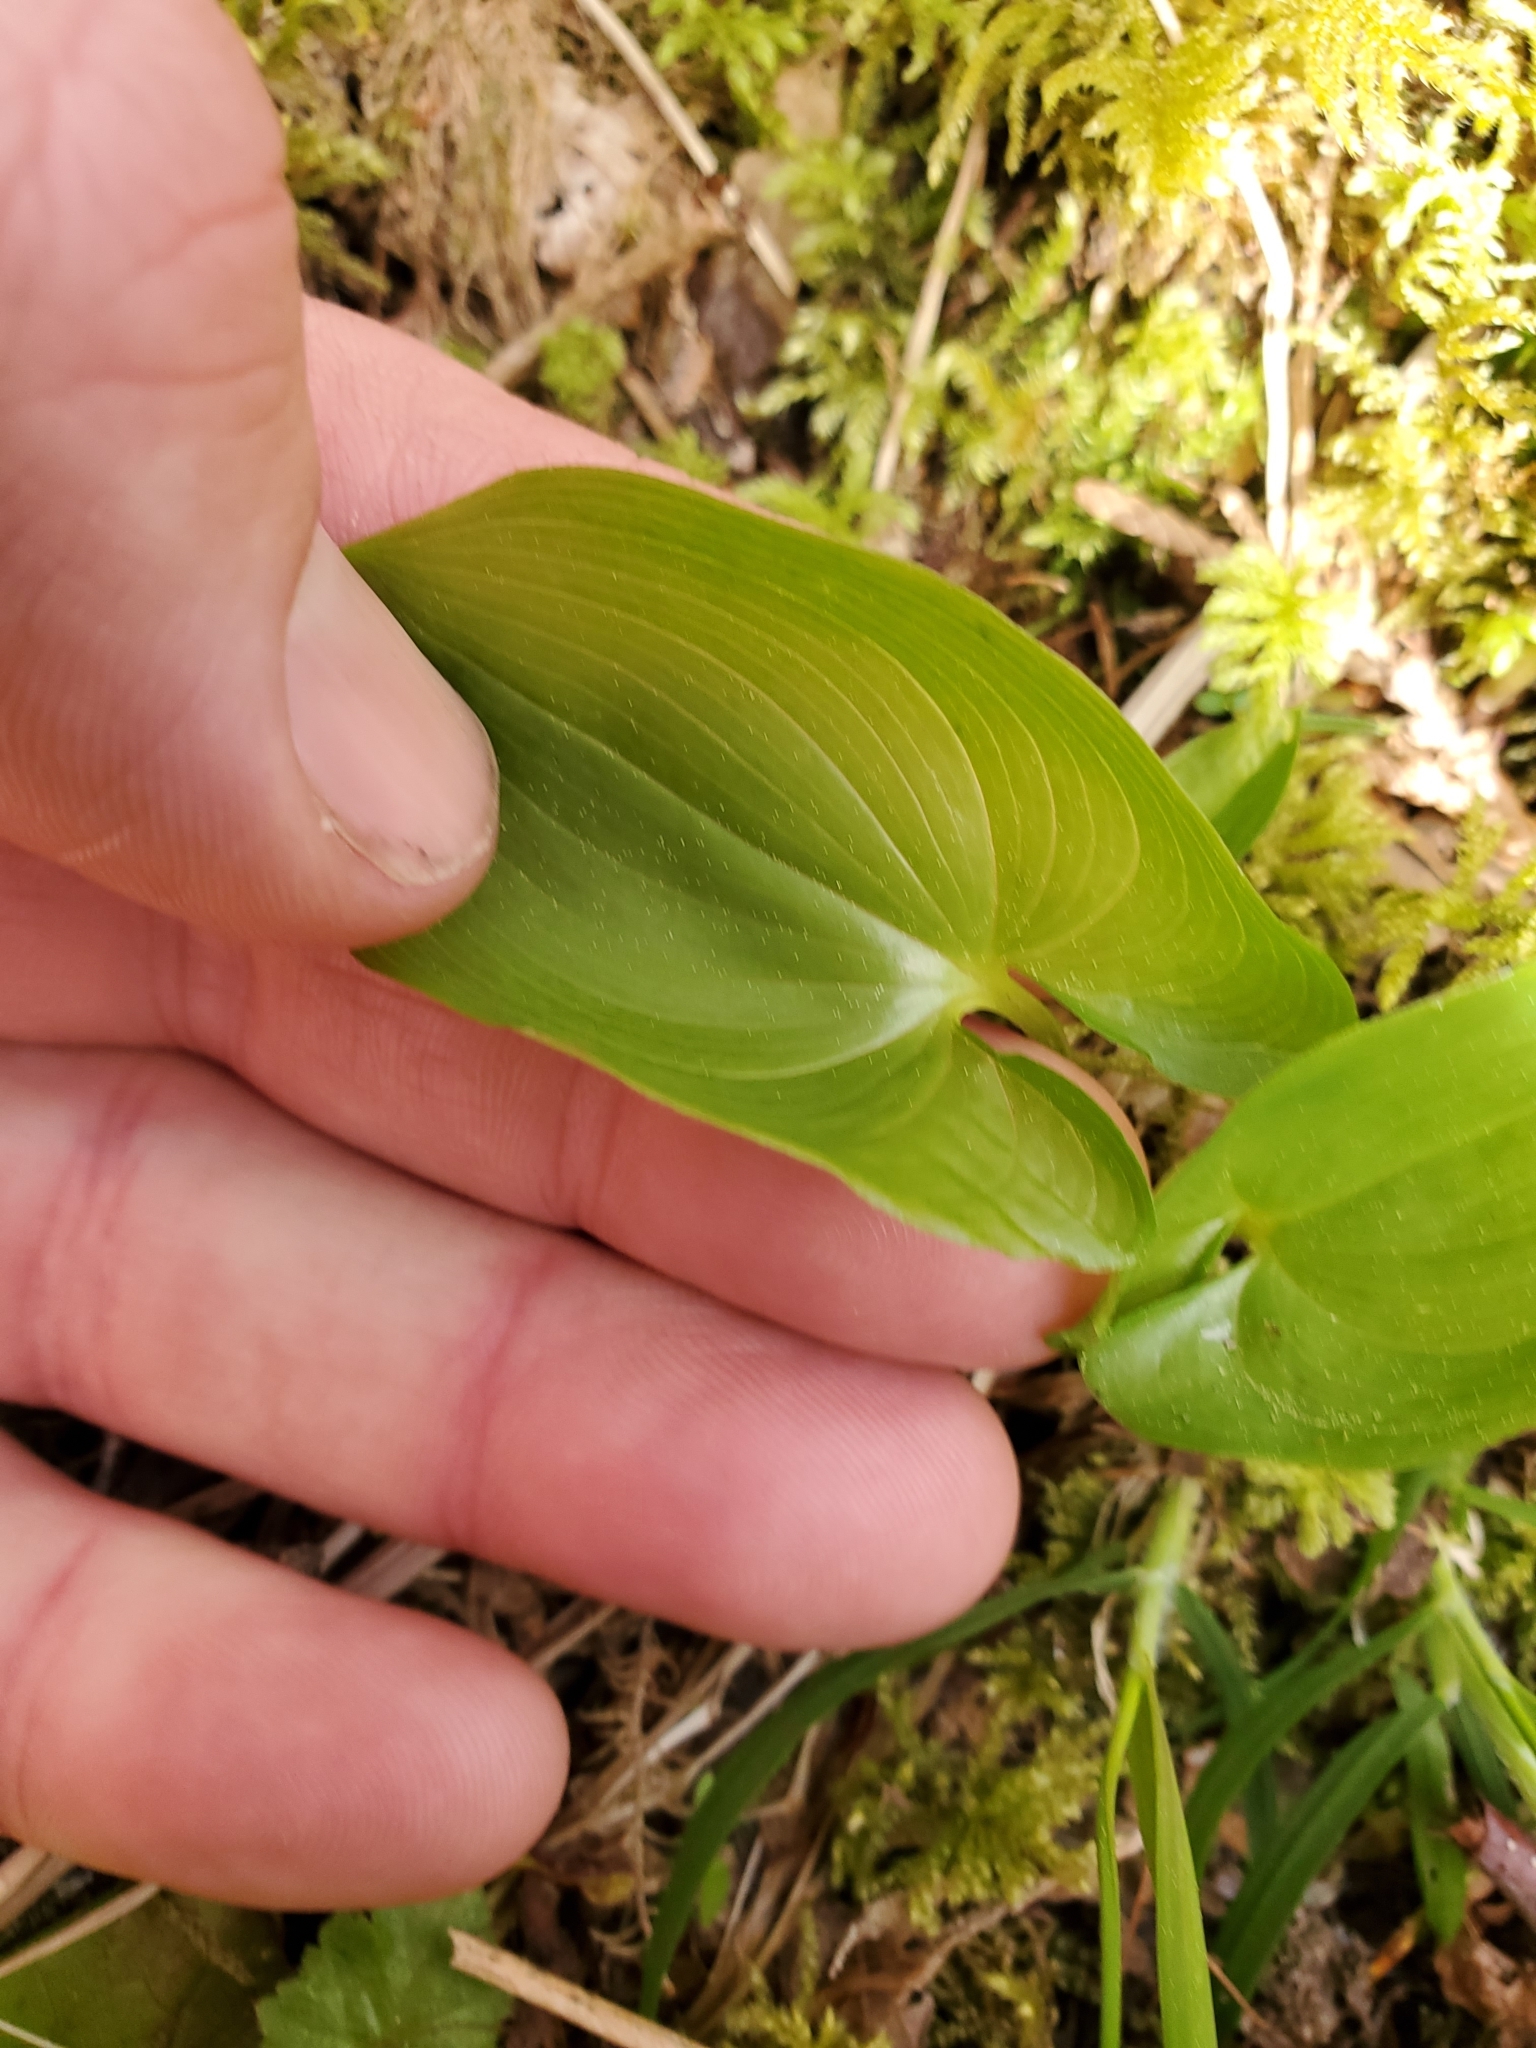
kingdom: Plantae
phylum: Tracheophyta
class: Liliopsida
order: Asparagales
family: Asparagaceae
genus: Maianthemum
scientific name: Maianthemum dilatatum
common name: False lily-of-the-valley
